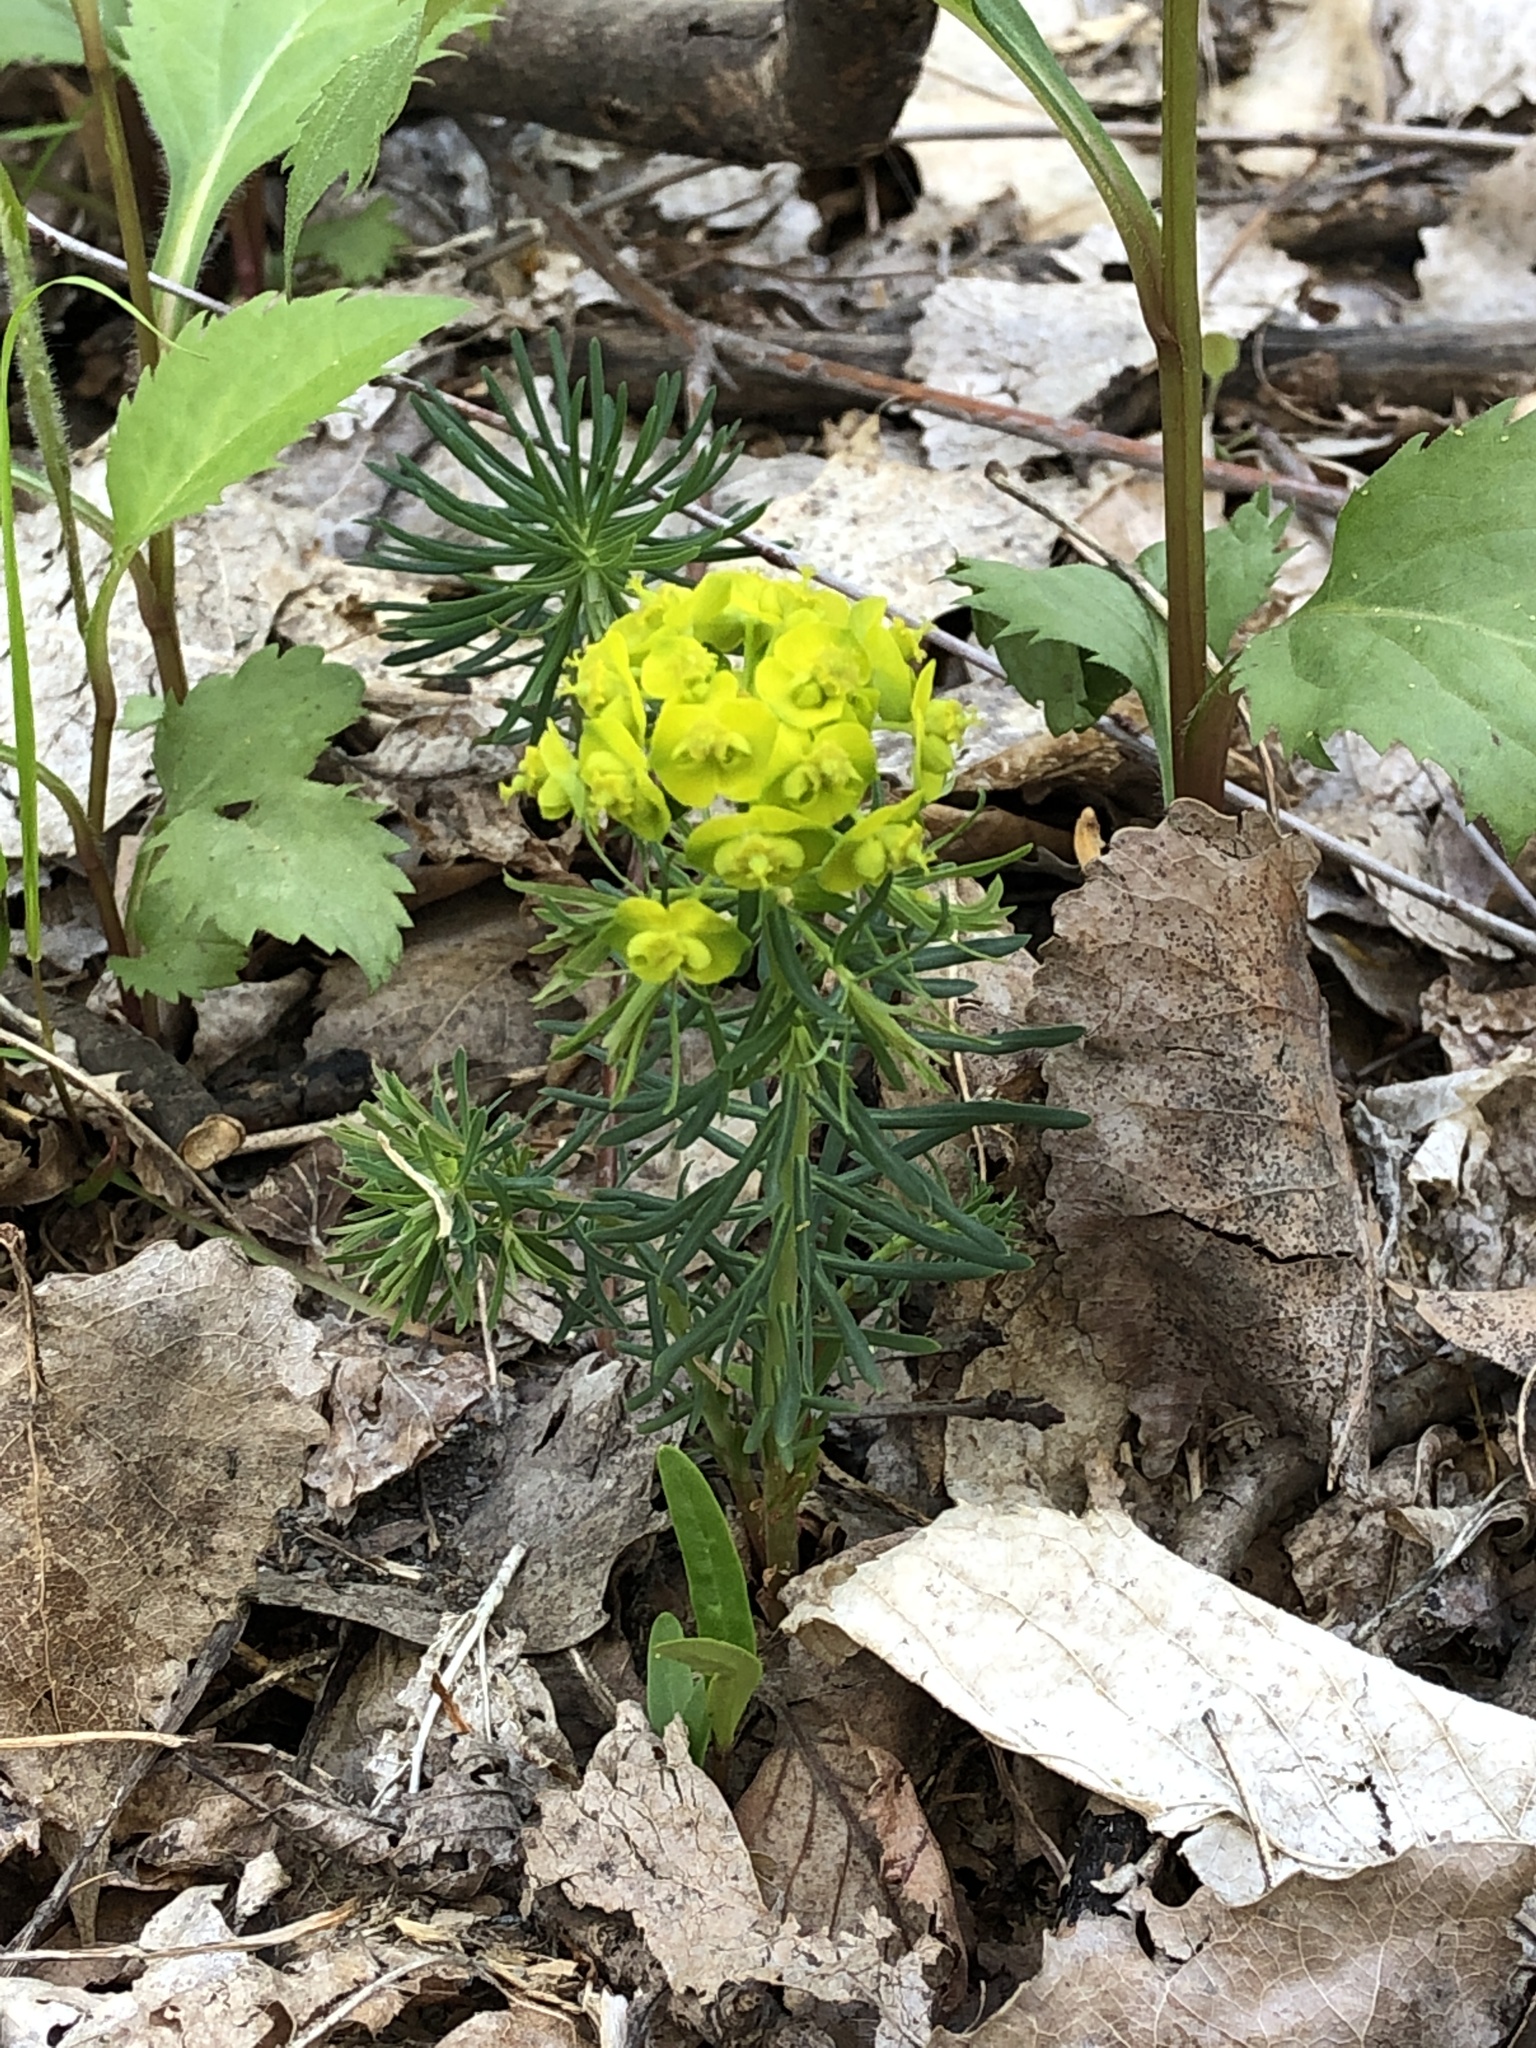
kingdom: Plantae
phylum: Tracheophyta
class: Magnoliopsida
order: Malpighiales
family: Euphorbiaceae
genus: Euphorbia
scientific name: Euphorbia cyparissias
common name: Cypress spurge
